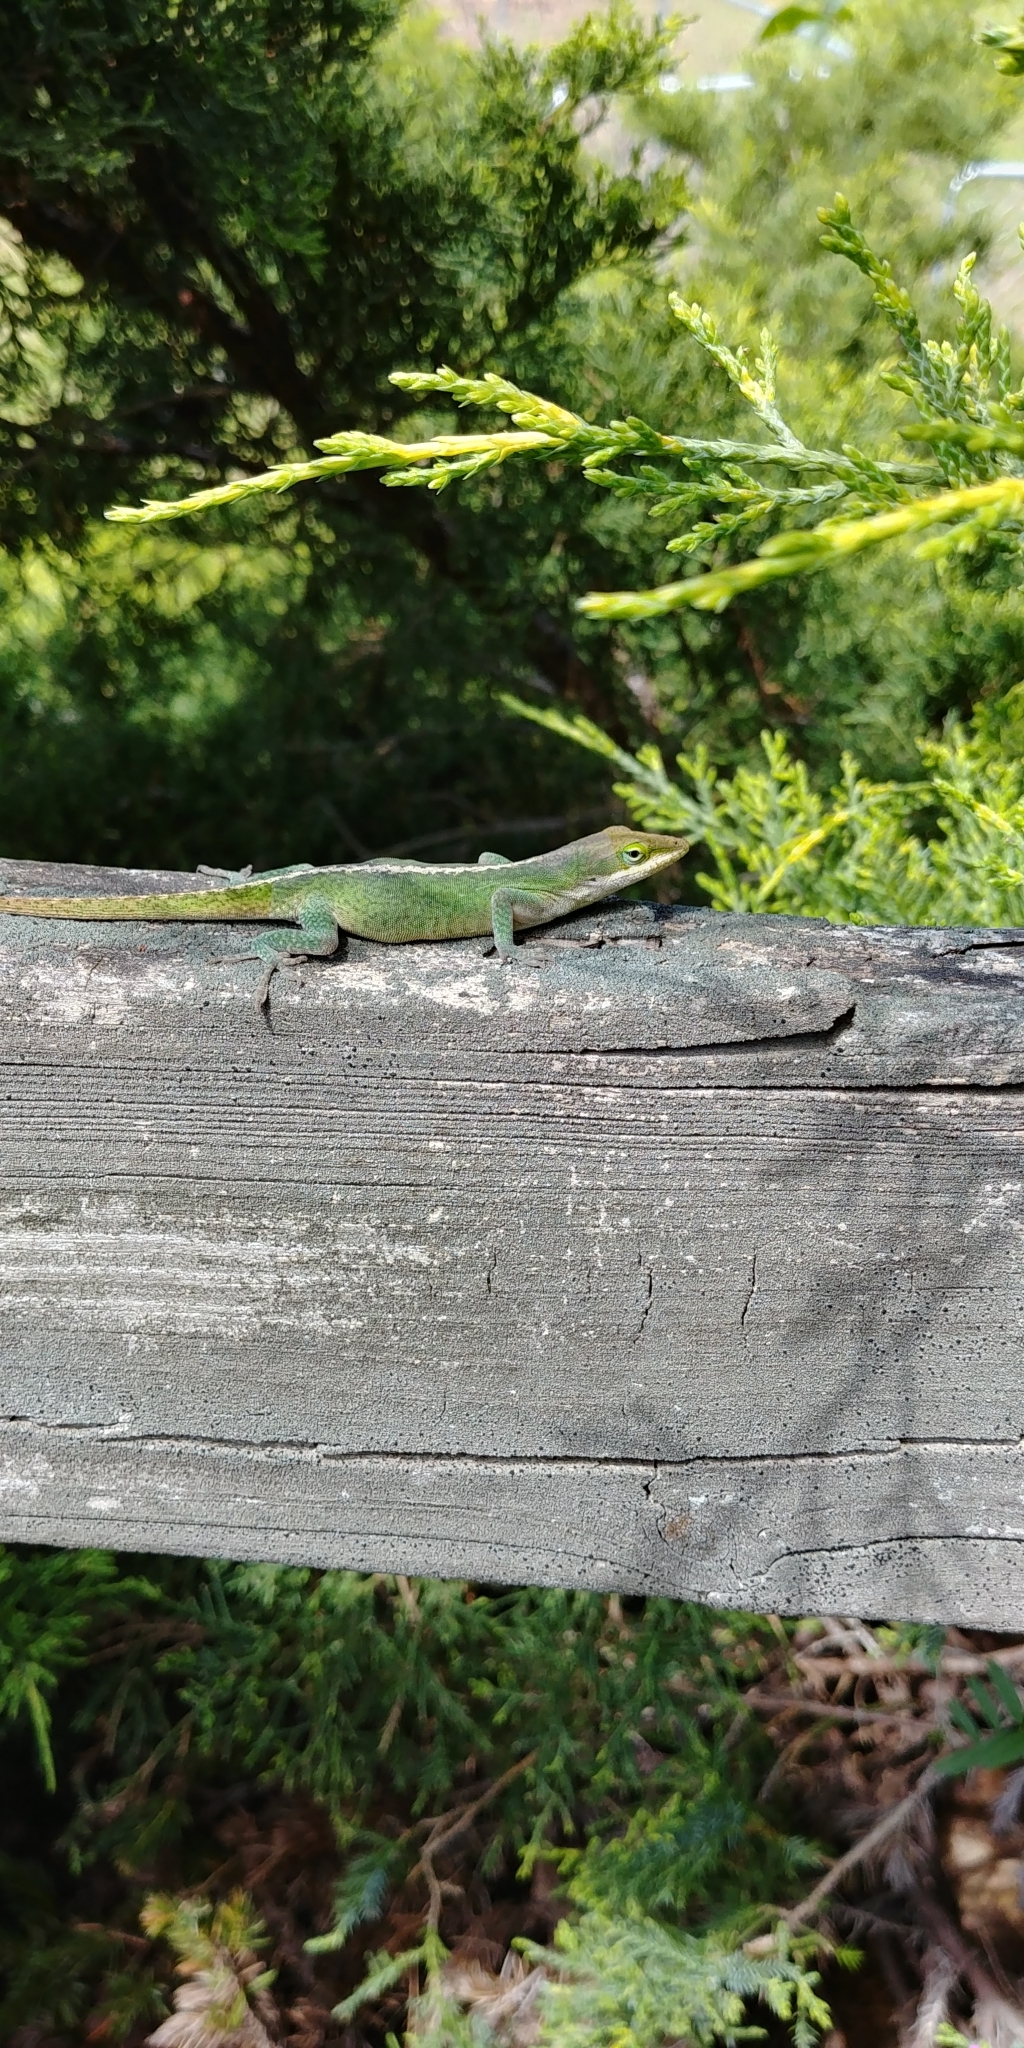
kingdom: Animalia
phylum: Chordata
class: Squamata
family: Dactyloidae
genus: Anolis
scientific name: Anolis carolinensis
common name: Green anole
